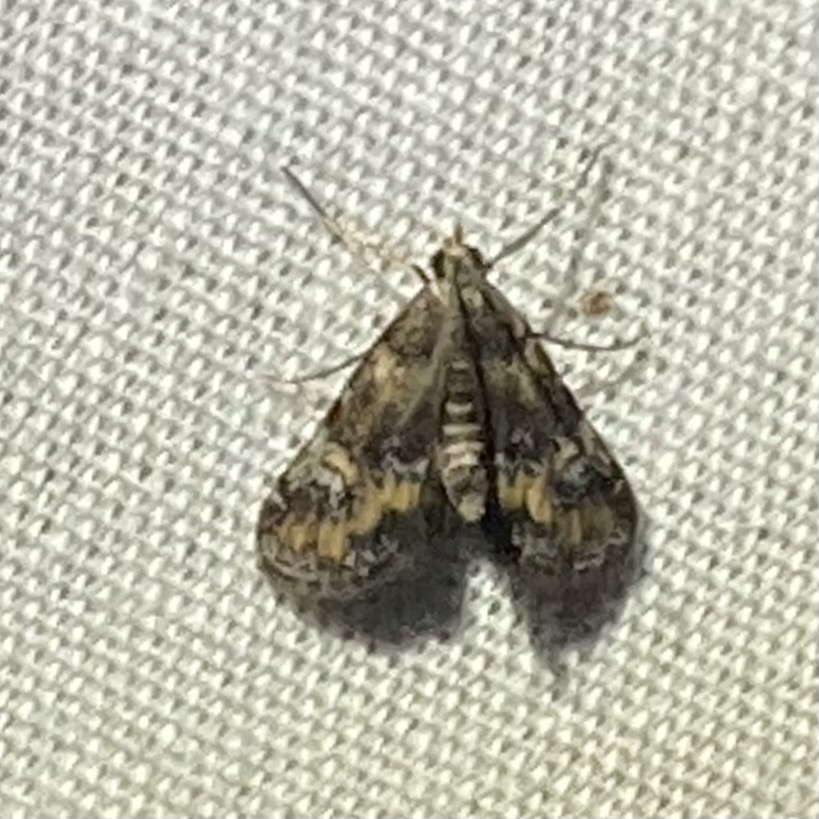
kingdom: Animalia
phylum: Arthropoda
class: Insecta
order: Lepidoptera
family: Crambidae
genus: Elophila
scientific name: Elophila obliteralis
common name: Waterlily leafcutter moth
